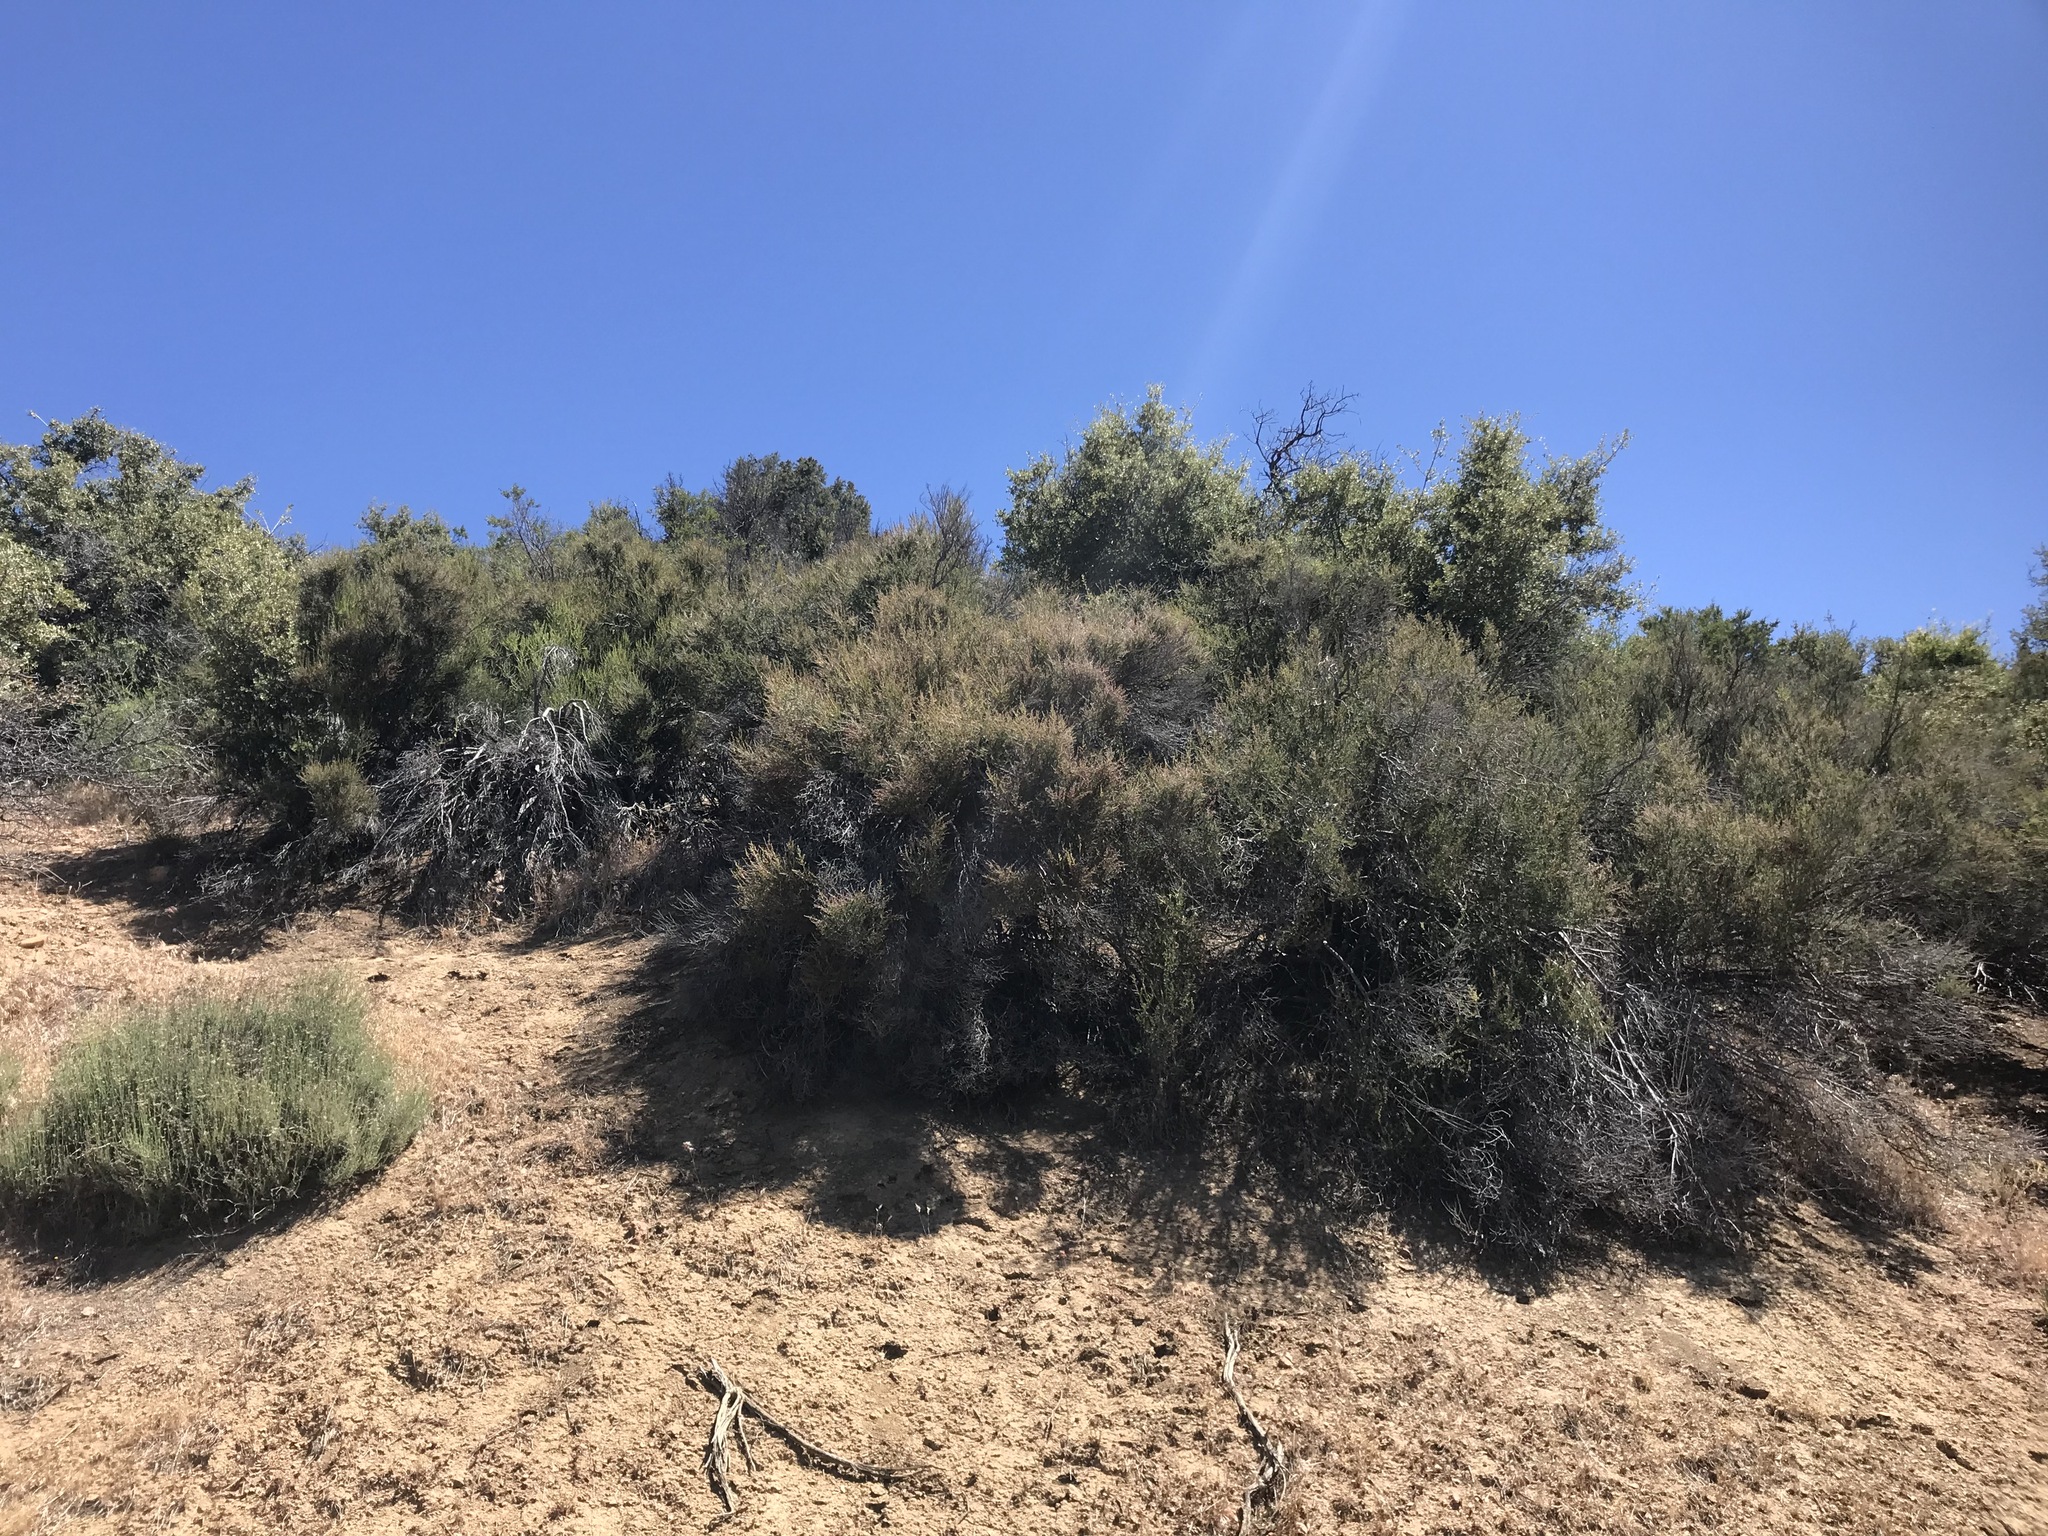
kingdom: Plantae
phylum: Tracheophyta
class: Magnoliopsida
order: Rosales
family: Rosaceae
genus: Adenostoma
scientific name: Adenostoma fasciculatum
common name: Chamise
